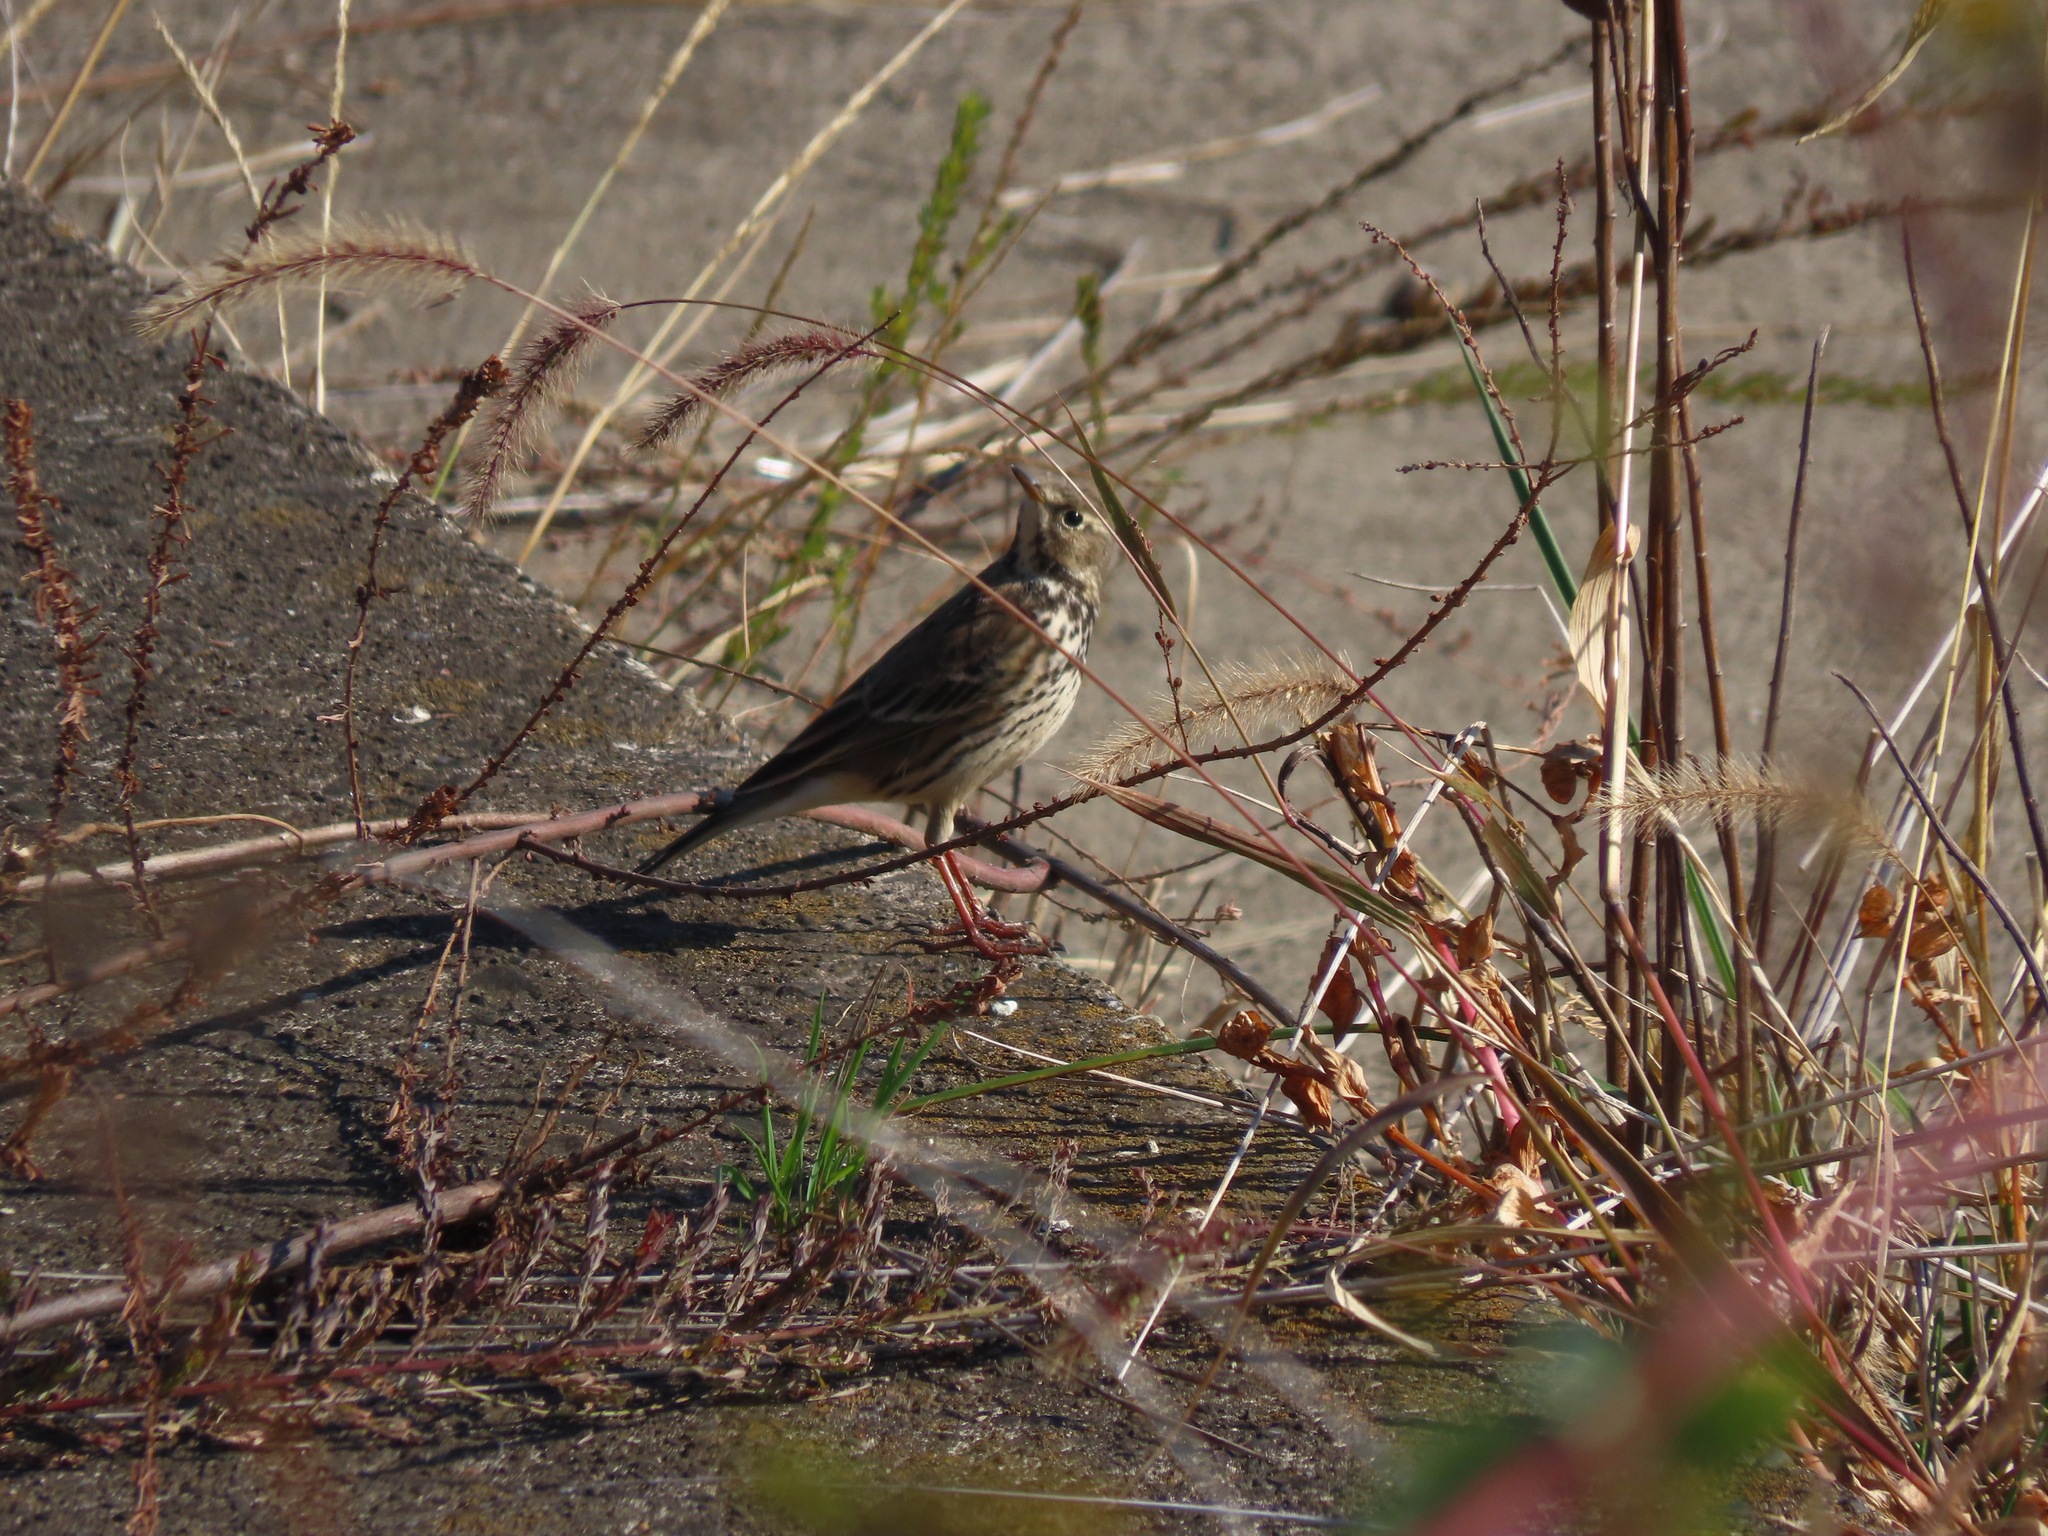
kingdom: Animalia
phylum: Chordata
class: Aves
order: Passeriformes
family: Motacillidae
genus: Anthus
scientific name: Anthus rubescens
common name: Buff-bellied pipit
